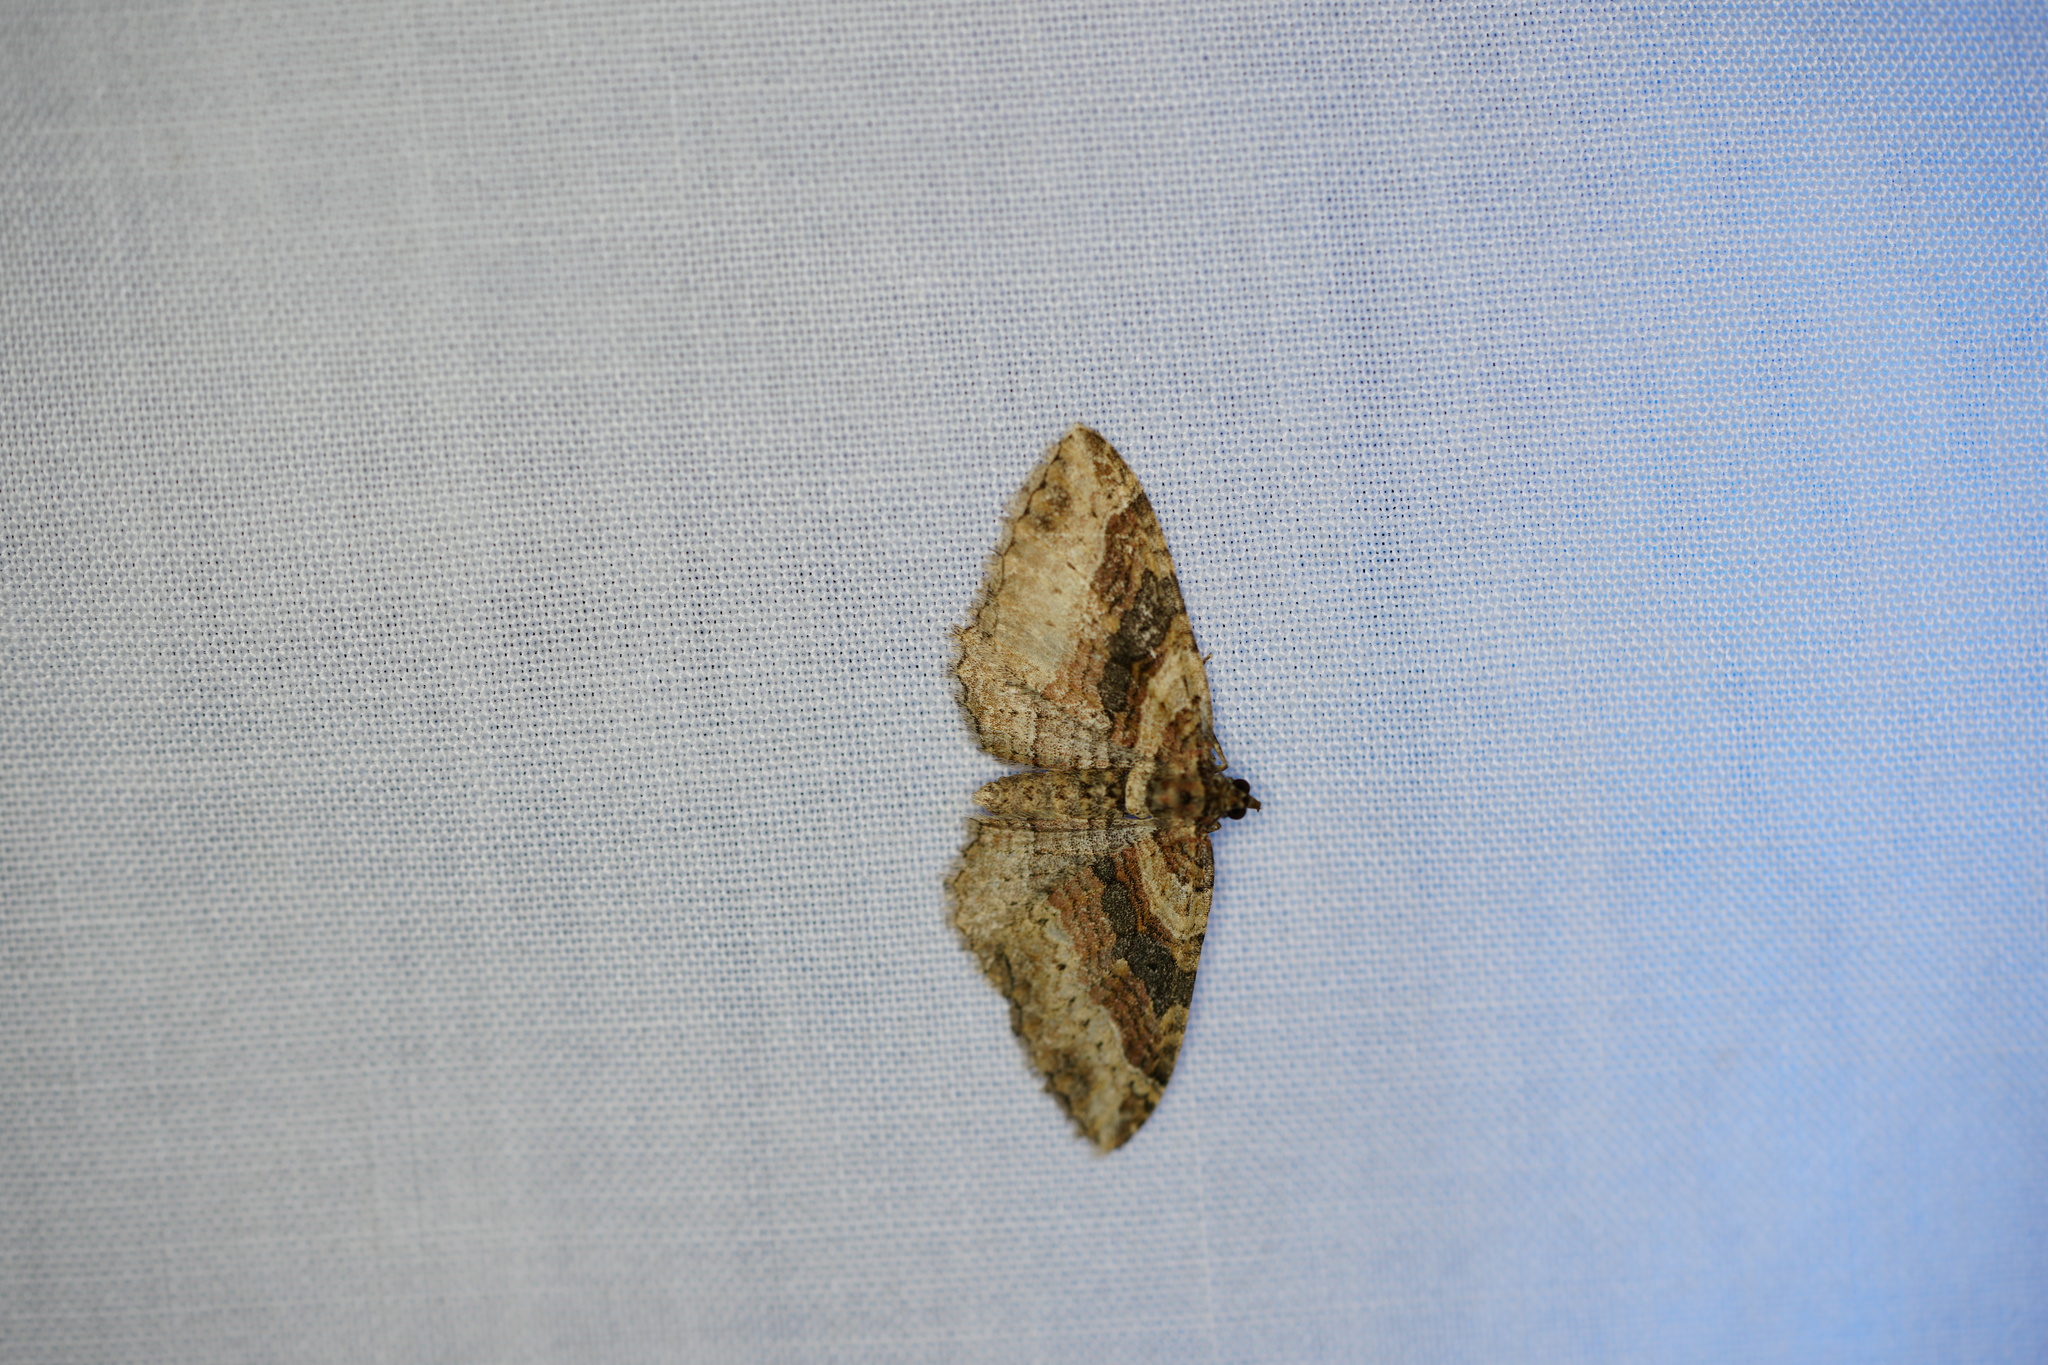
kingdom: Animalia
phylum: Arthropoda
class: Insecta
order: Lepidoptera
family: Geometridae
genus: Costaconvexa
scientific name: Costaconvexa centrostrigaria
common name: Bent-line carpet
